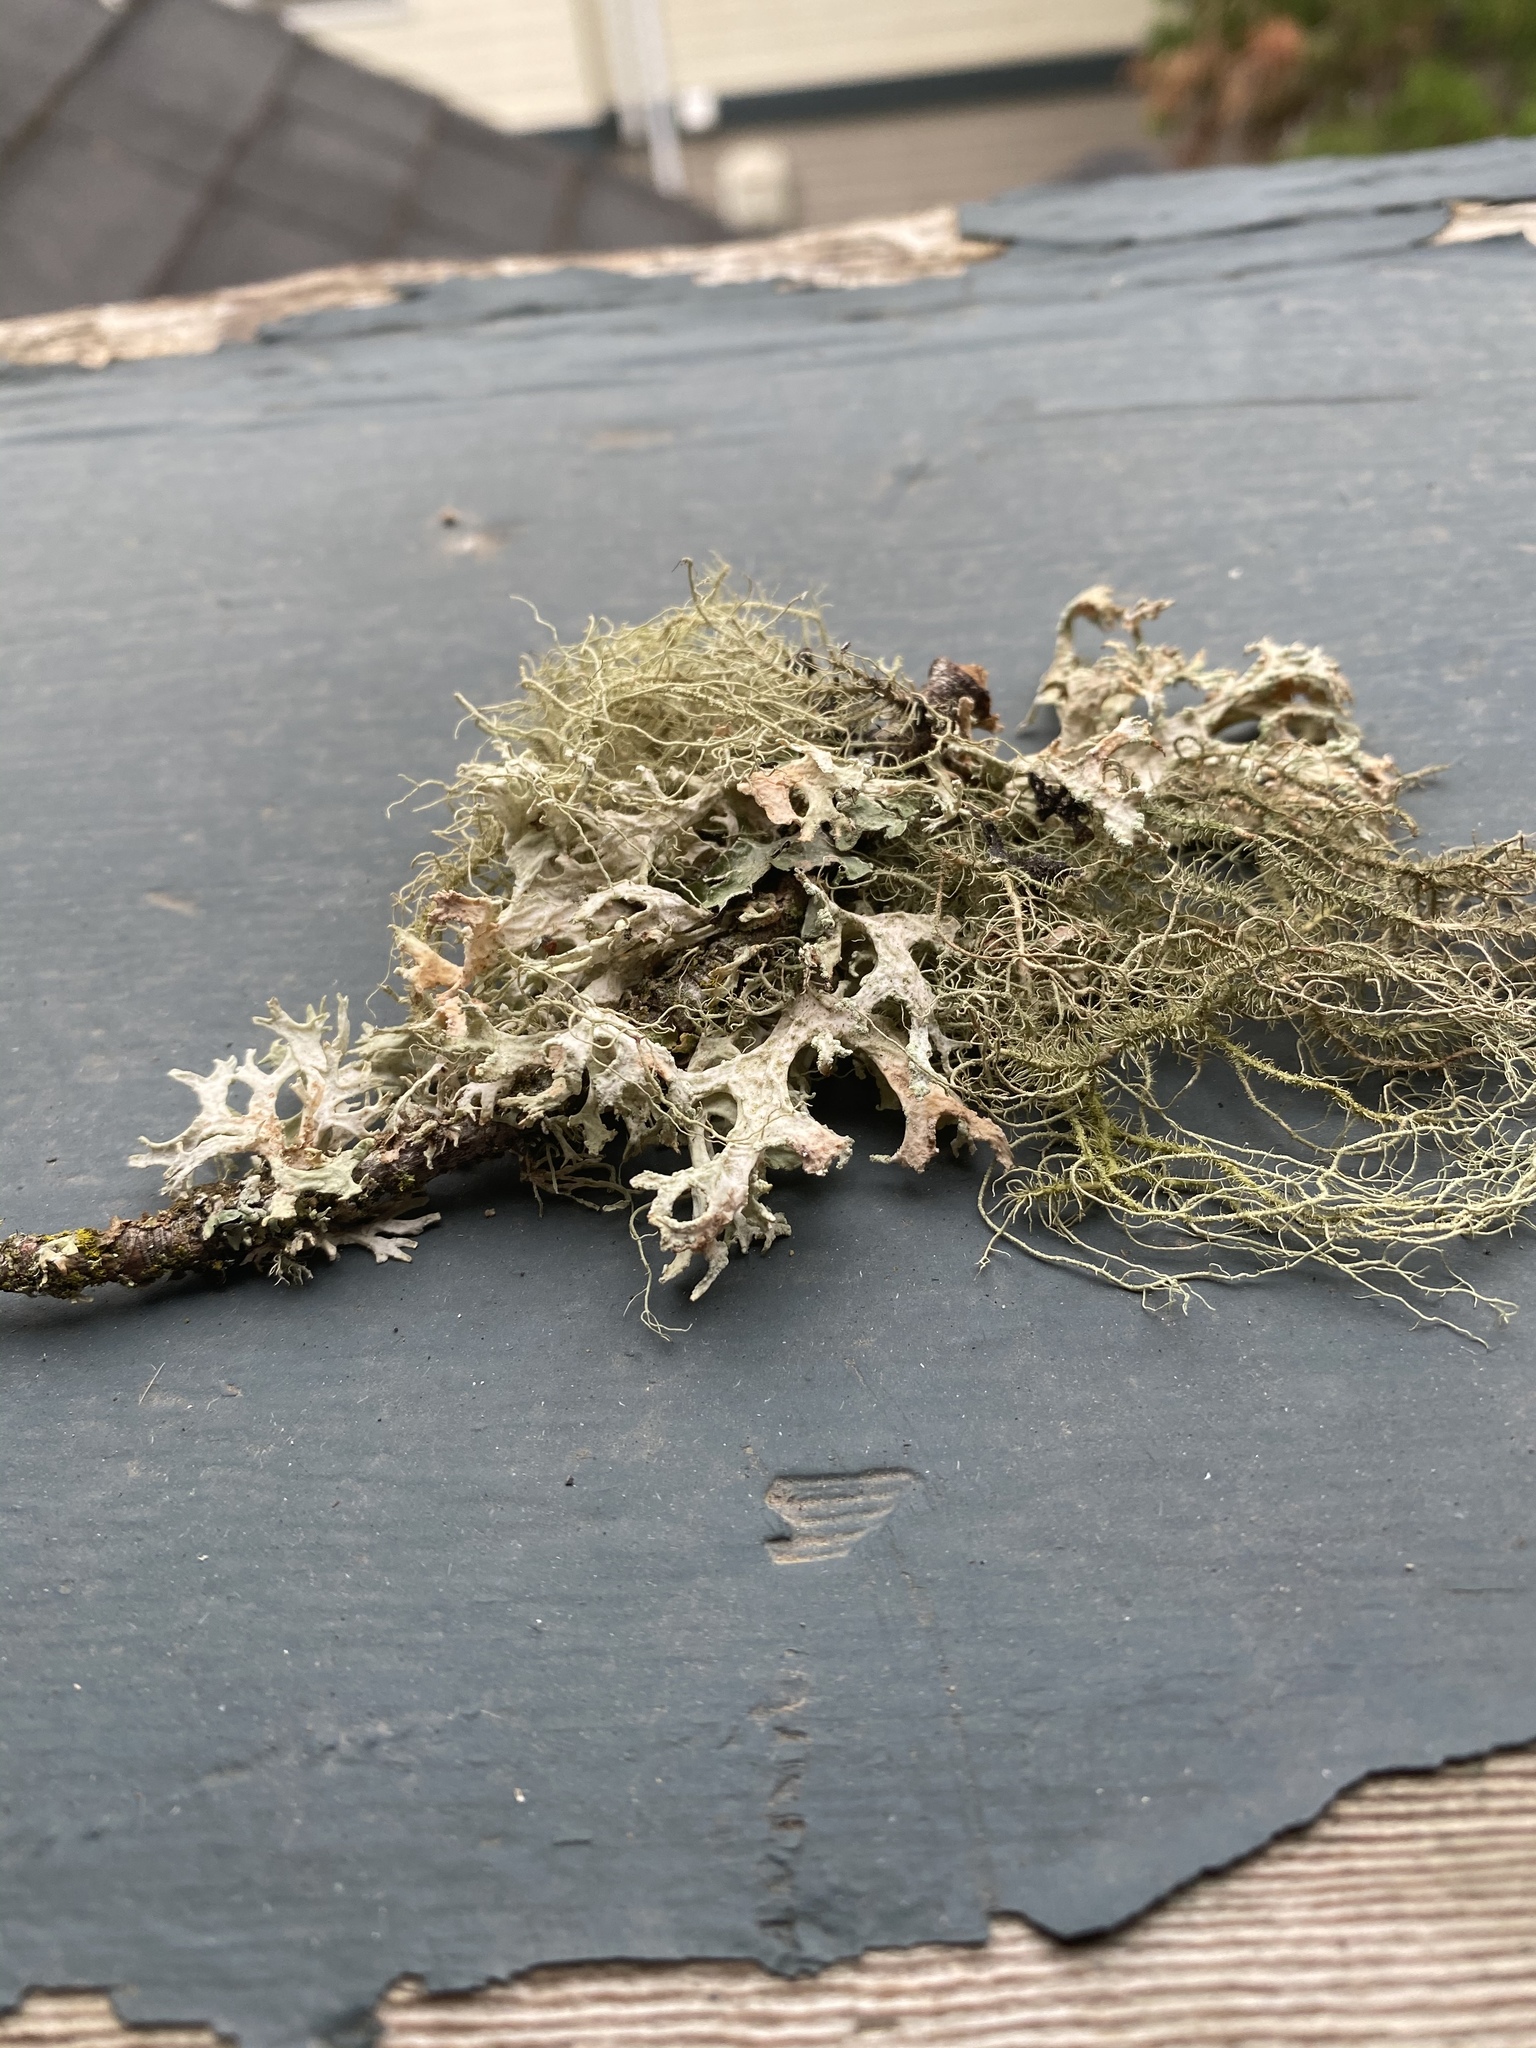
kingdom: Fungi
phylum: Ascomycota
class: Lecanoromycetes
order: Lecanorales
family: Parmeliaceae
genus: Evernia
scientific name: Evernia prunastri
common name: Oak moss
